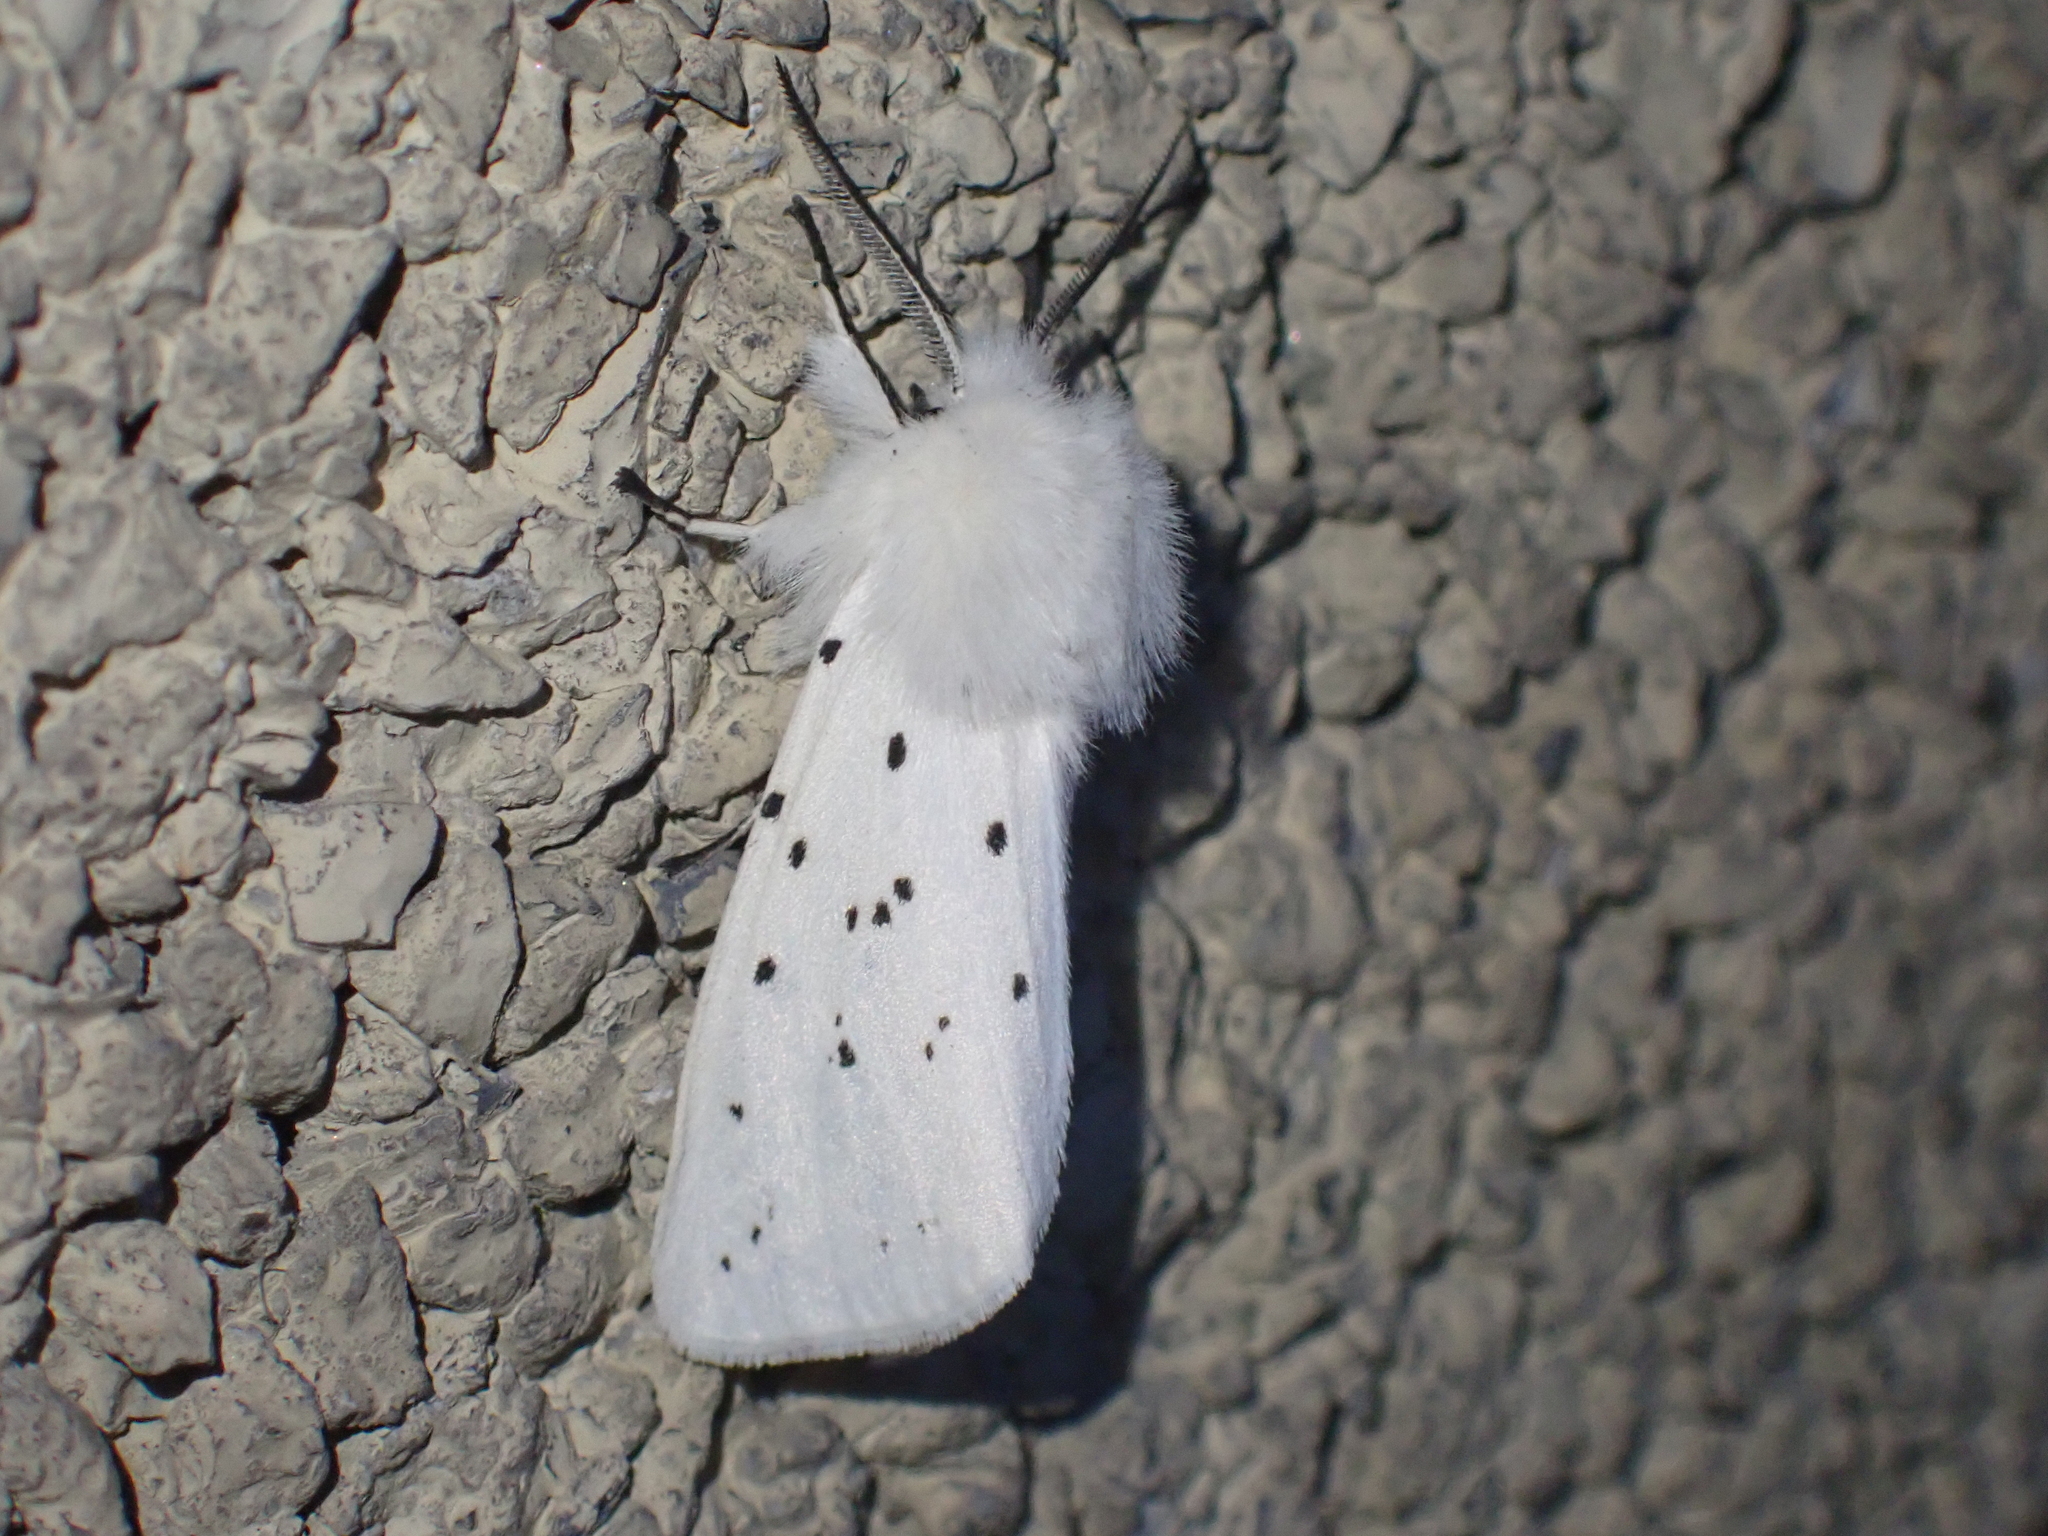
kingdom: Animalia
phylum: Arthropoda
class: Insecta
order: Lepidoptera
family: Erebidae
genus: Spilosoma
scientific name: Spilosoma lubricipeda
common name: White ermine
